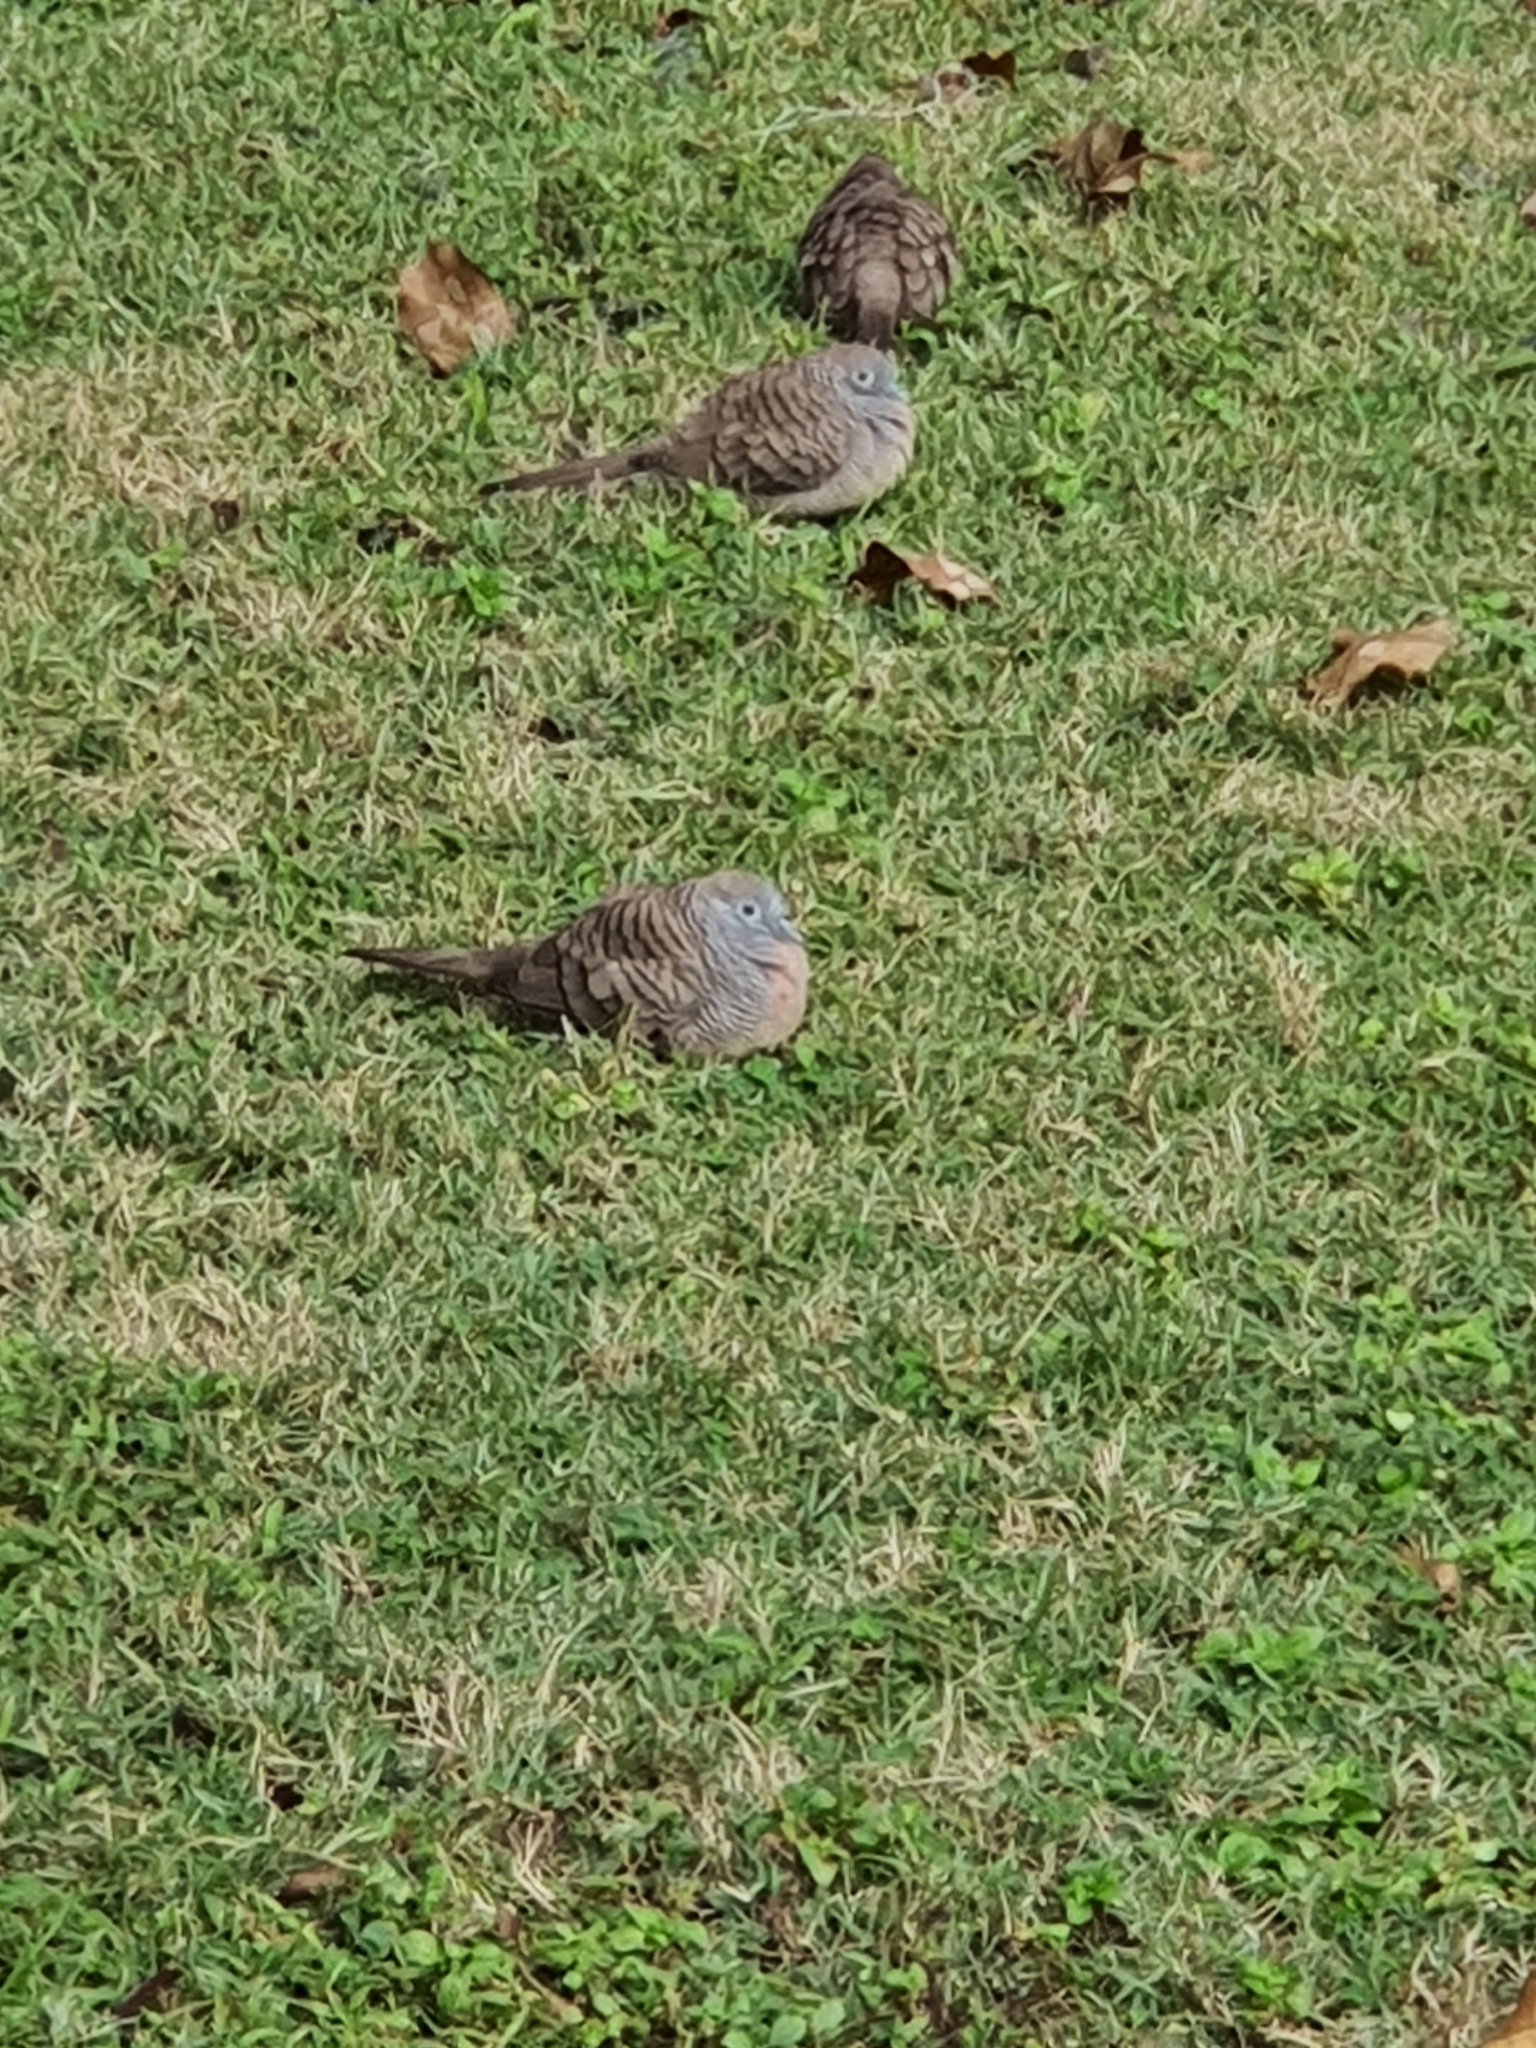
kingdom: Animalia
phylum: Chordata
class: Aves
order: Columbiformes
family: Columbidae
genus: Geopelia
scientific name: Geopelia striata
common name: Zebra dove
